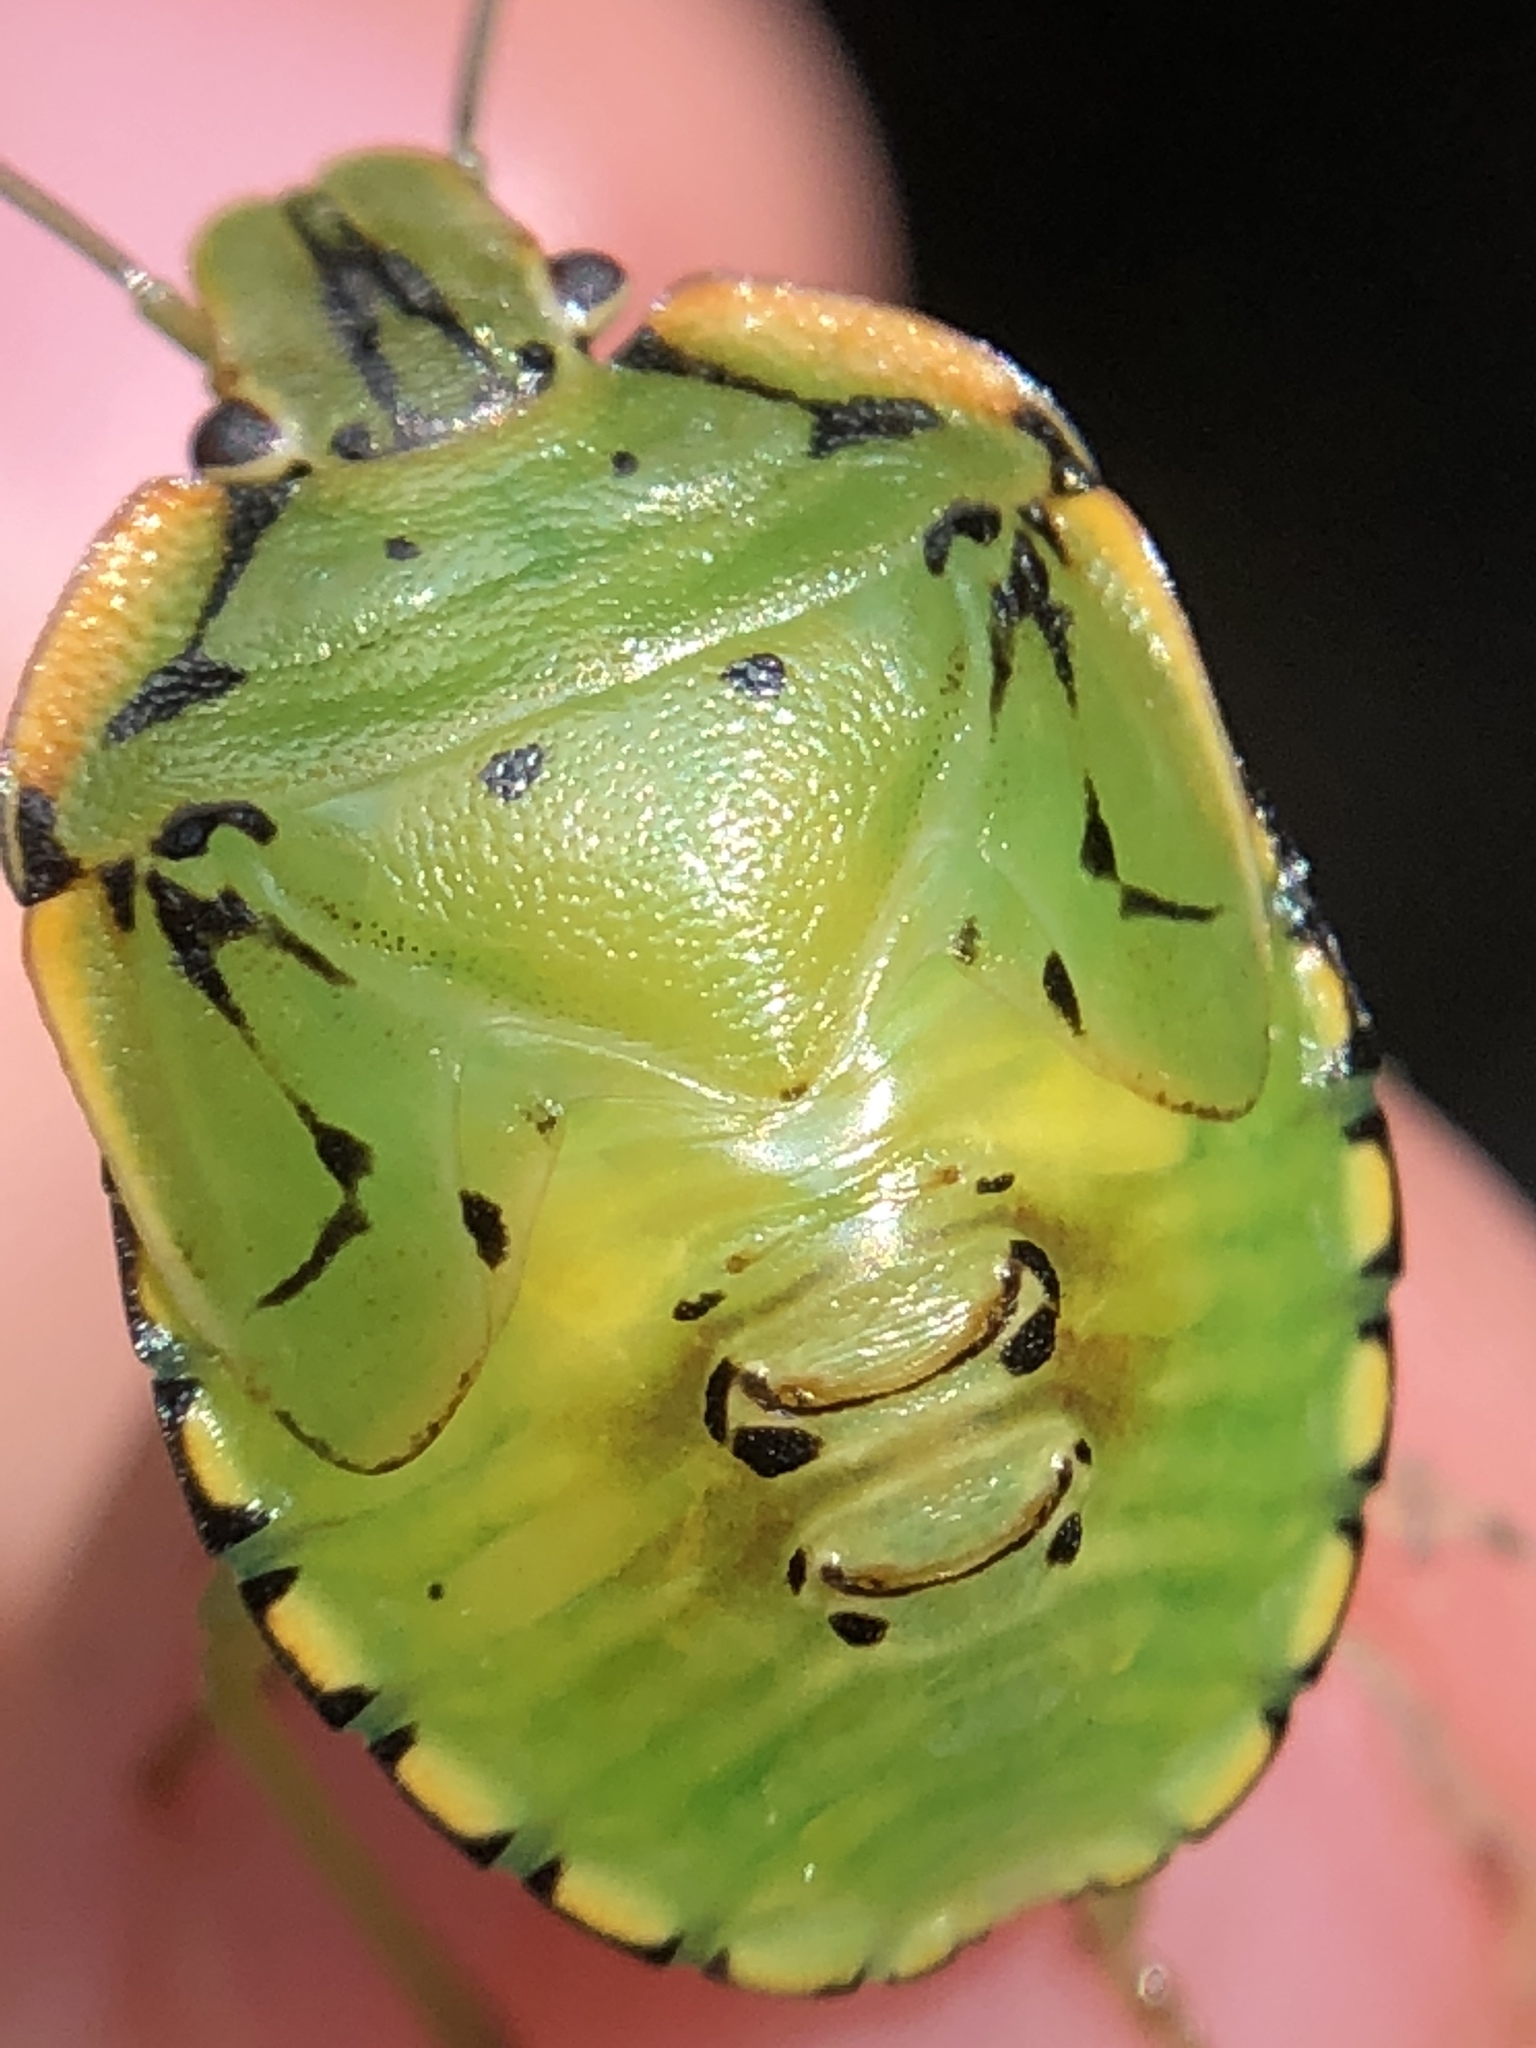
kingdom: Animalia
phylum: Arthropoda
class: Insecta
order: Hemiptera
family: Pentatomidae
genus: Chinavia
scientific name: Chinavia hilaris
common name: Green stink bug
